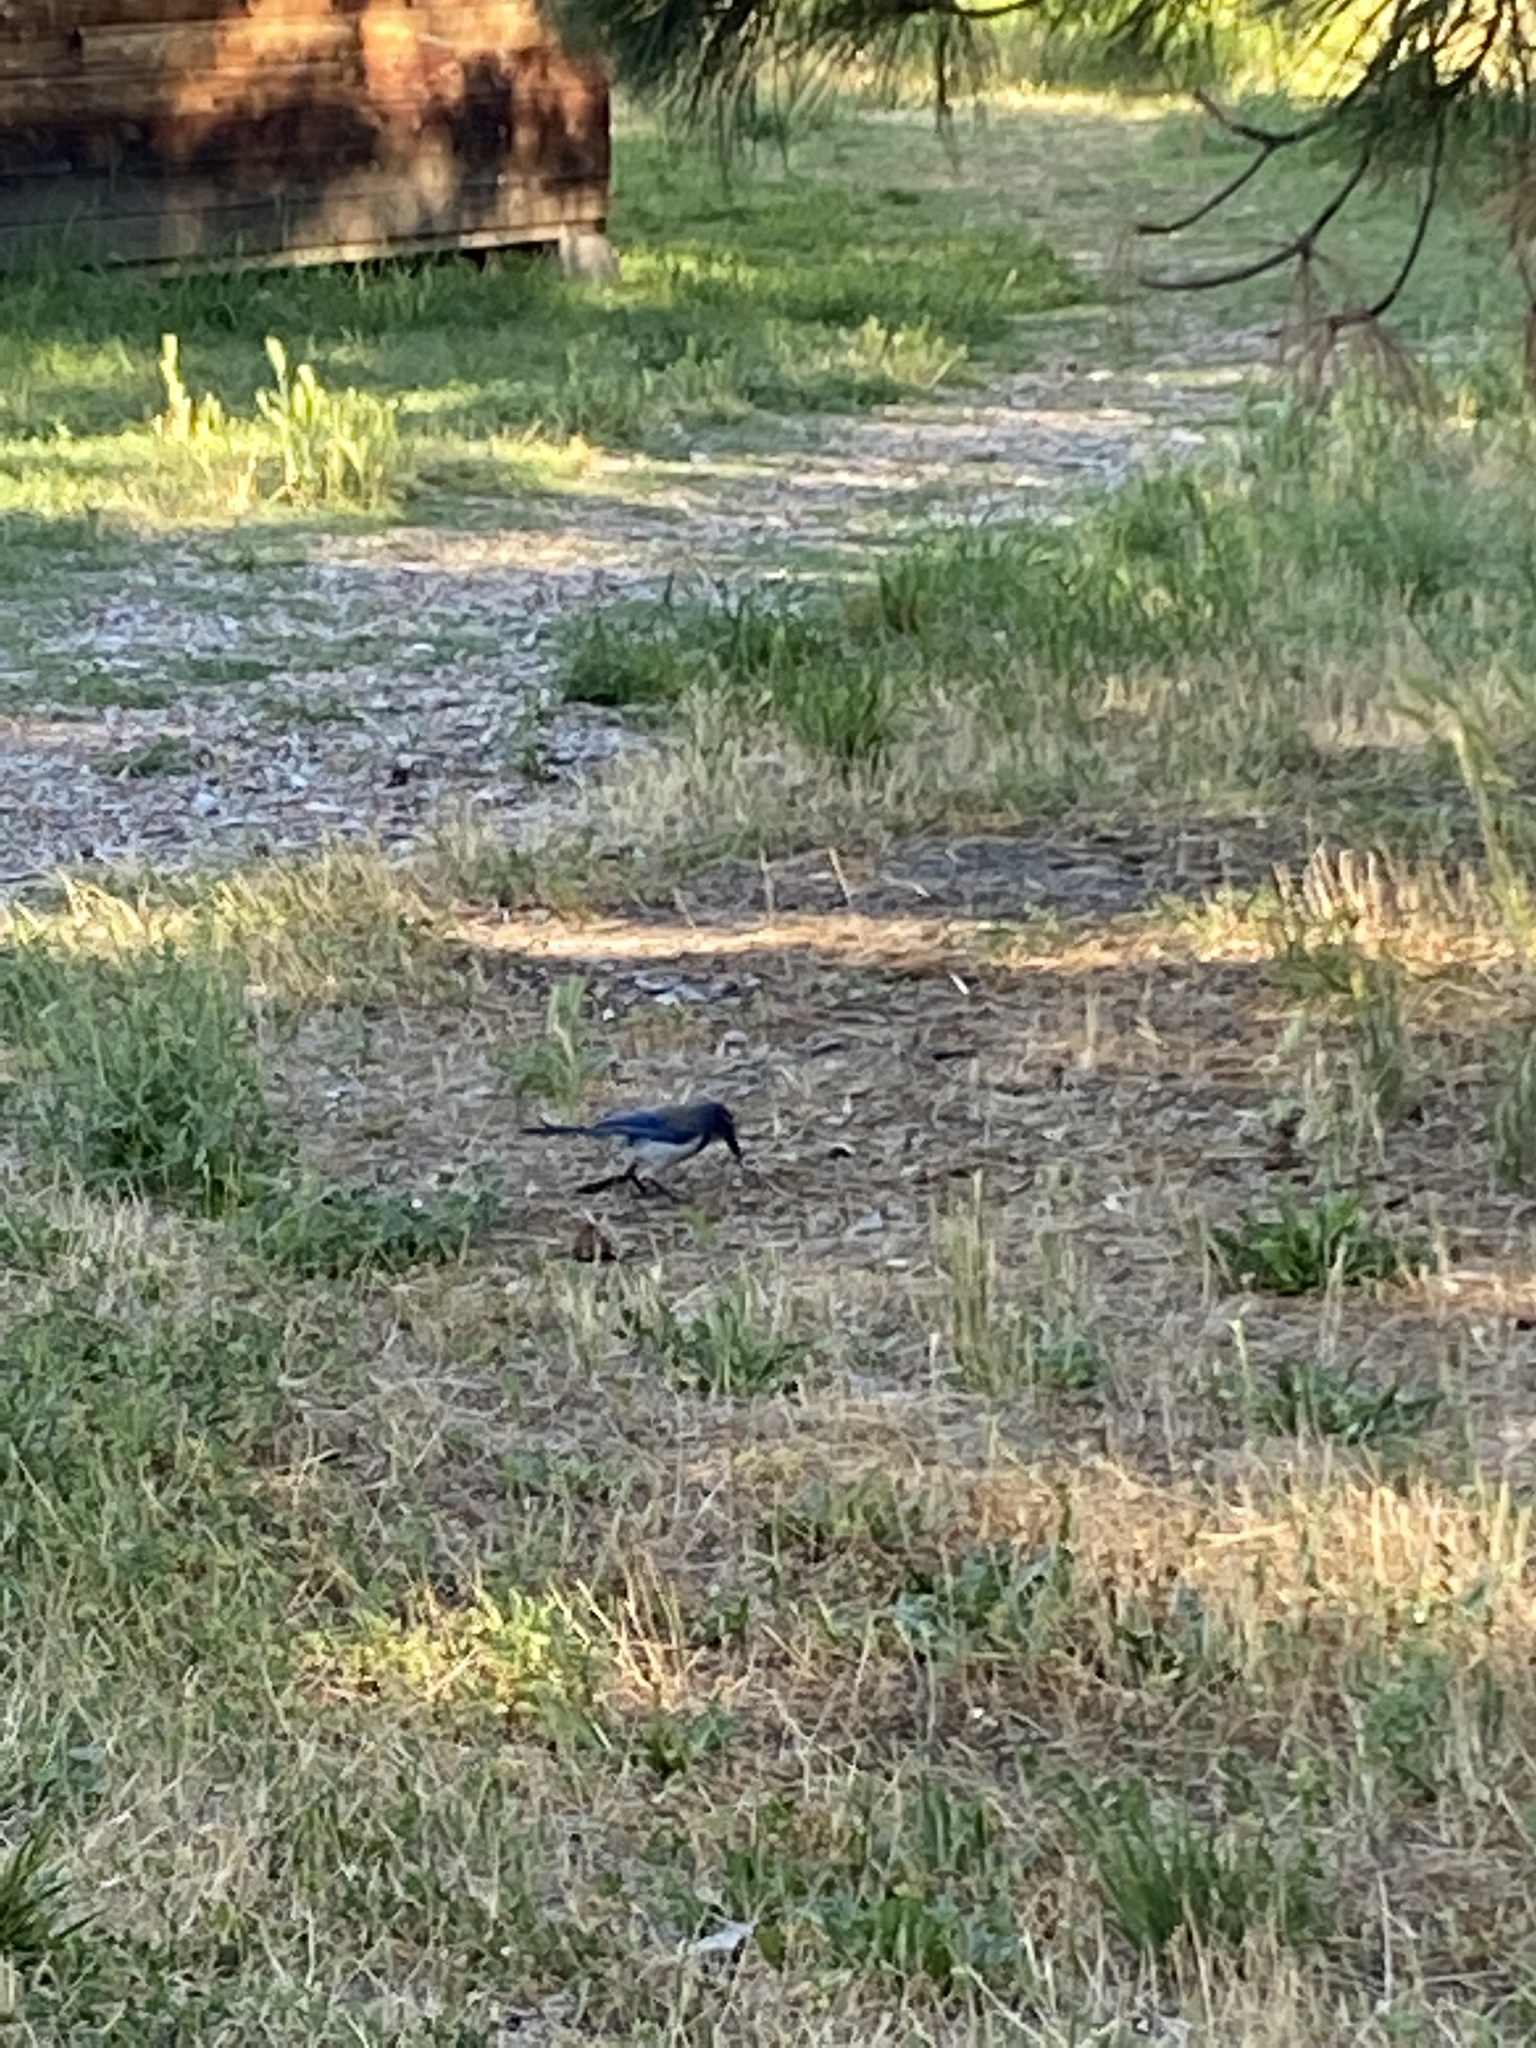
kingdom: Animalia
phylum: Chordata
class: Aves
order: Passeriformes
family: Corvidae
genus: Aphelocoma
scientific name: Aphelocoma californica
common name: California scrub-jay
